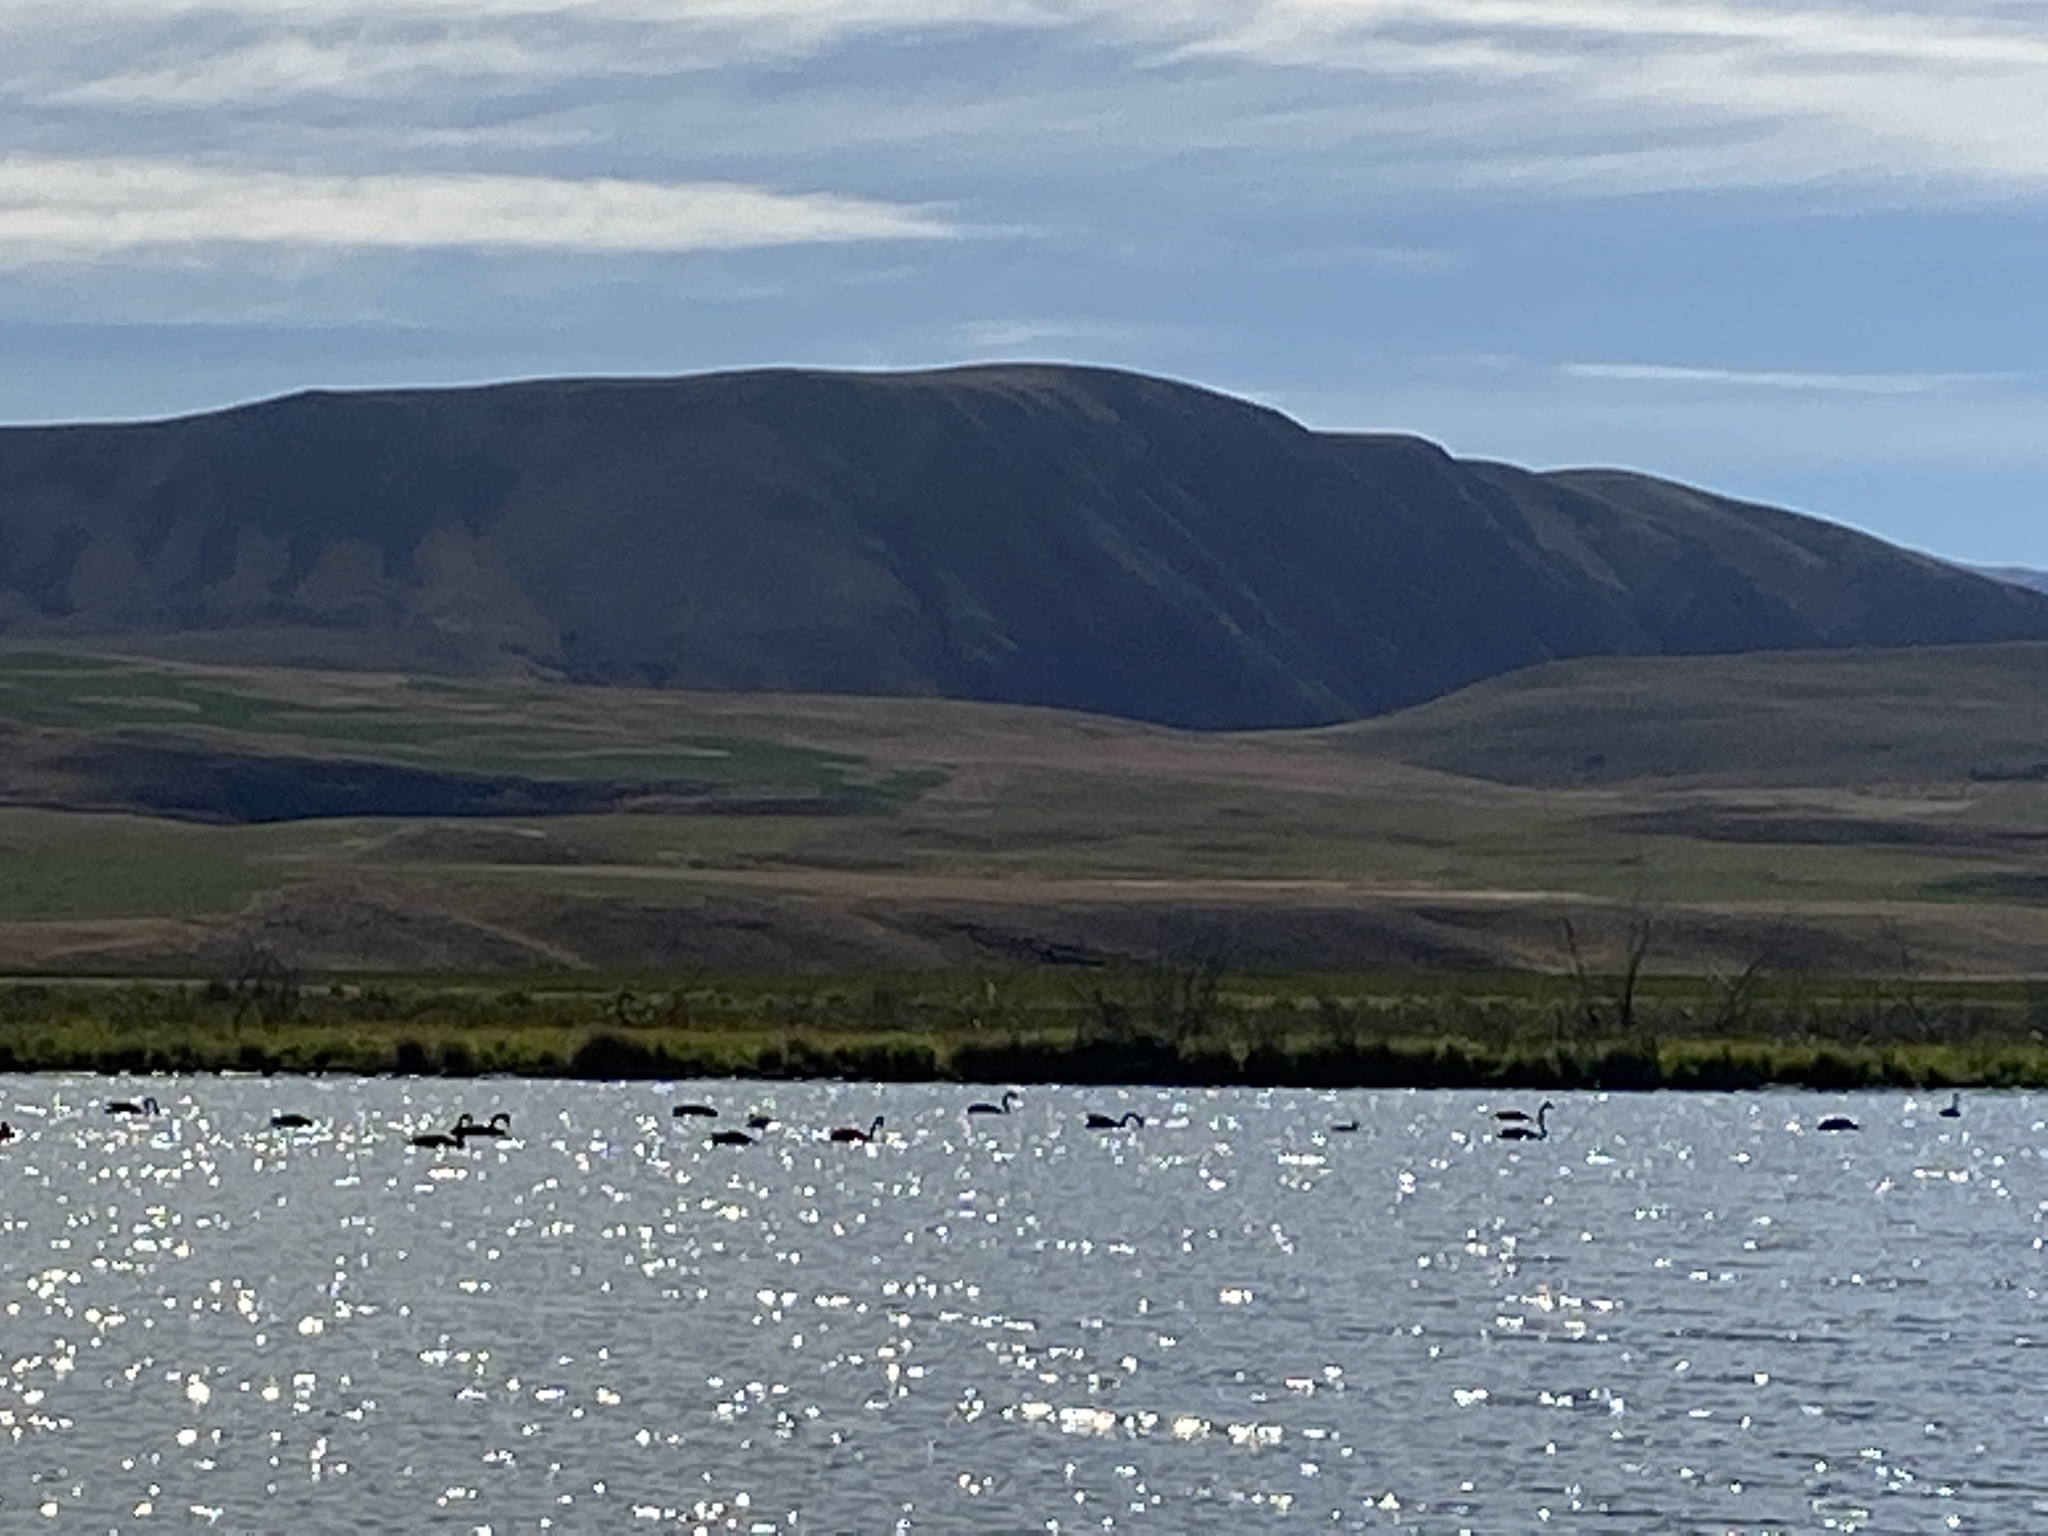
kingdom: Animalia
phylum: Chordata
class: Aves
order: Anseriformes
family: Anatidae
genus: Cygnus
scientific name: Cygnus atratus
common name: Black swan
